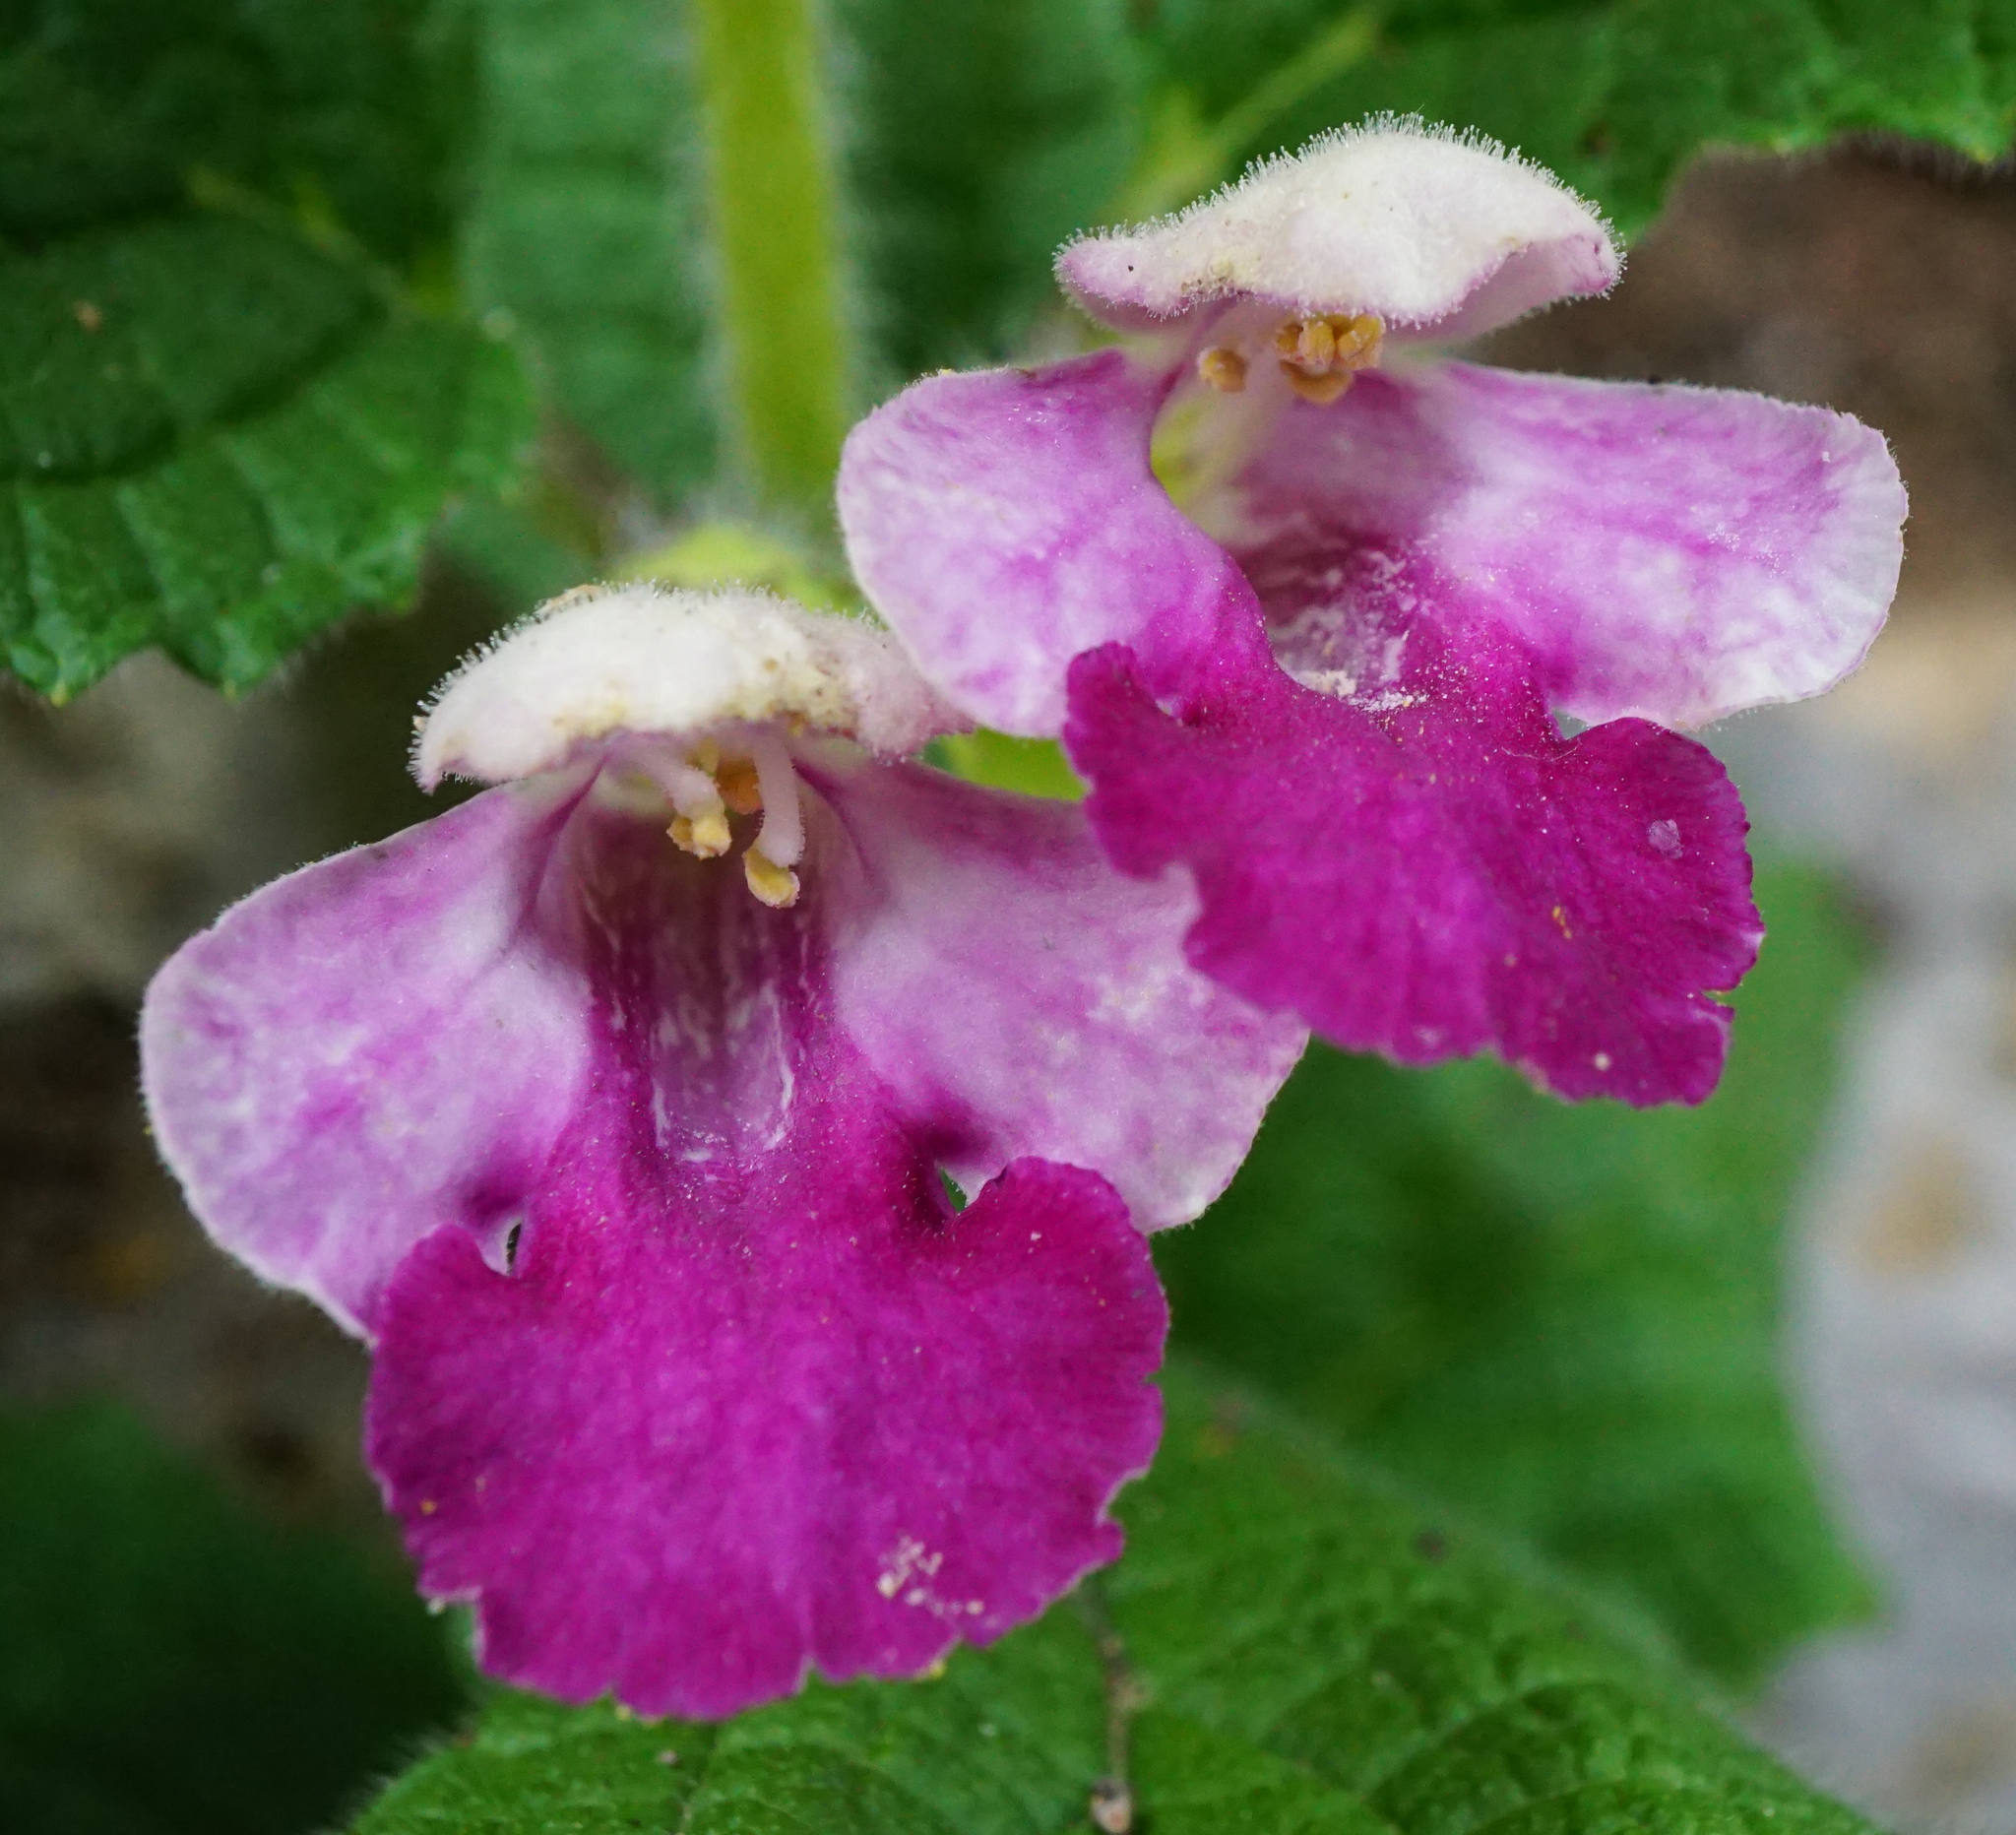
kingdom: Plantae
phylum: Tracheophyta
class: Magnoliopsida
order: Lamiales
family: Lamiaceae
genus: Melittis
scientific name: Melittis melissophyllum
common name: Bastard balm
